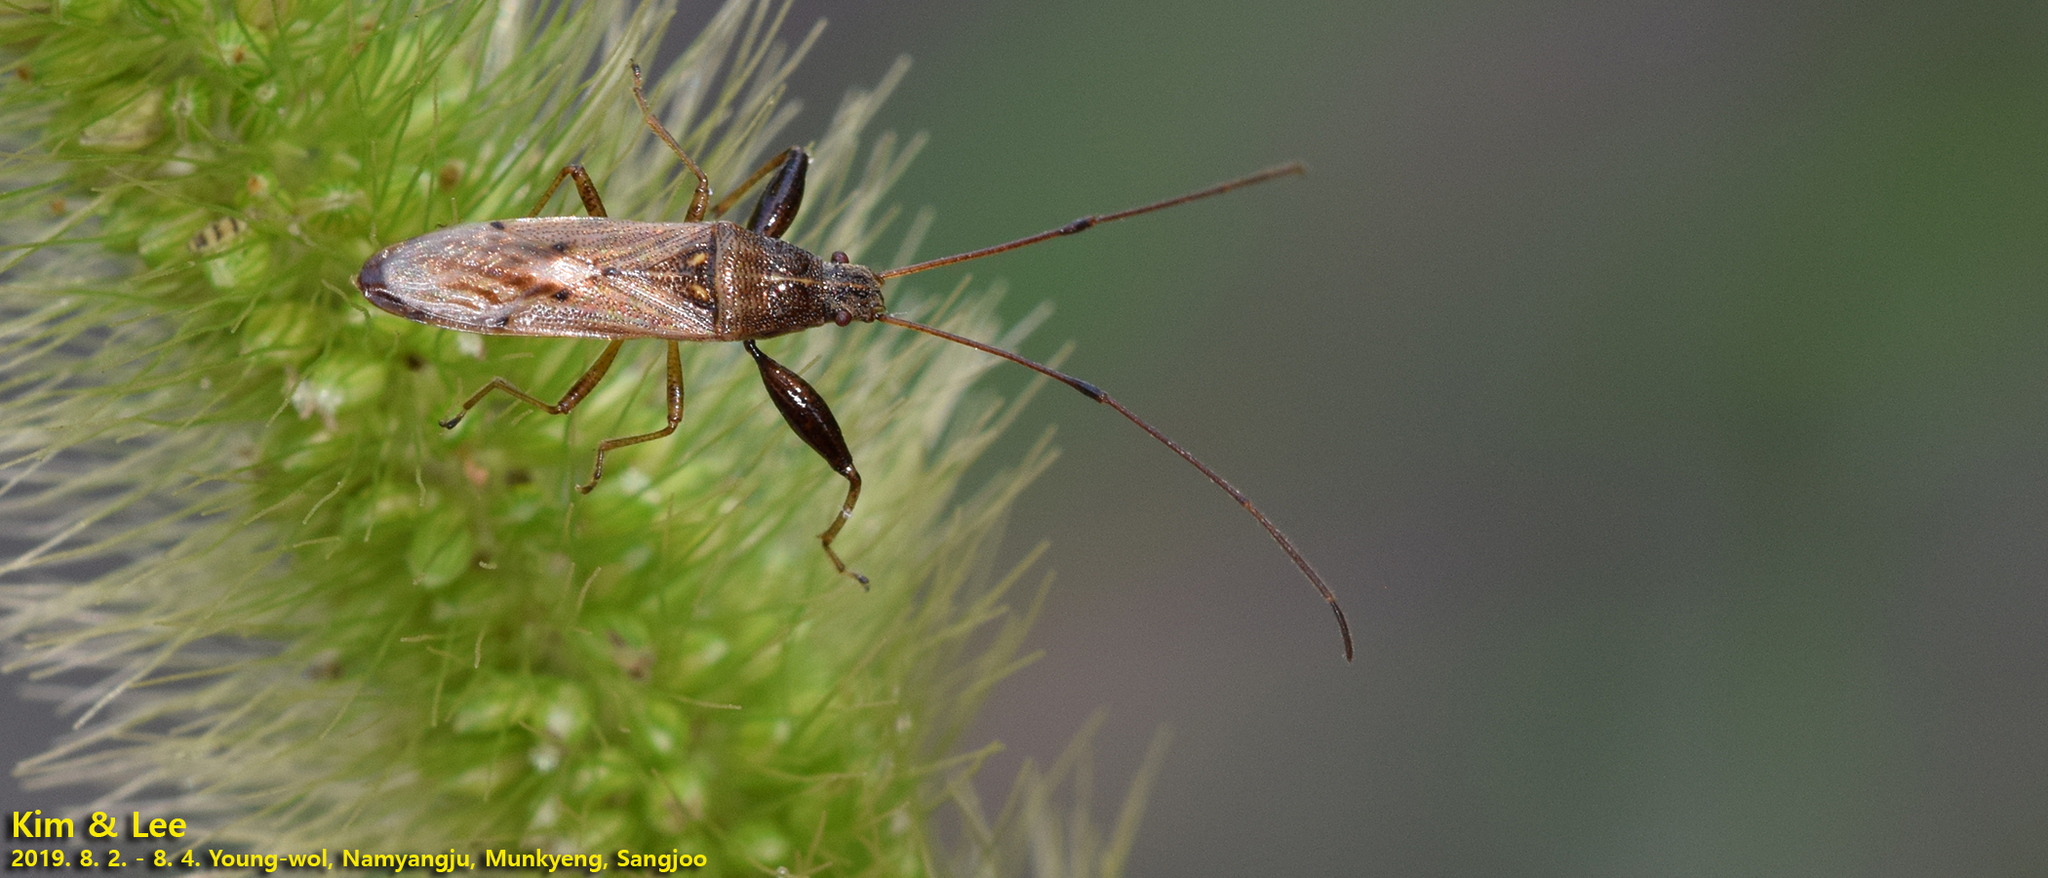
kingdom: Animalia
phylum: Arthropoda
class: Insecta
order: Hemiptera
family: Pachygronthidae
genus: Pachygrontha
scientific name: Pachygrontha antennata
